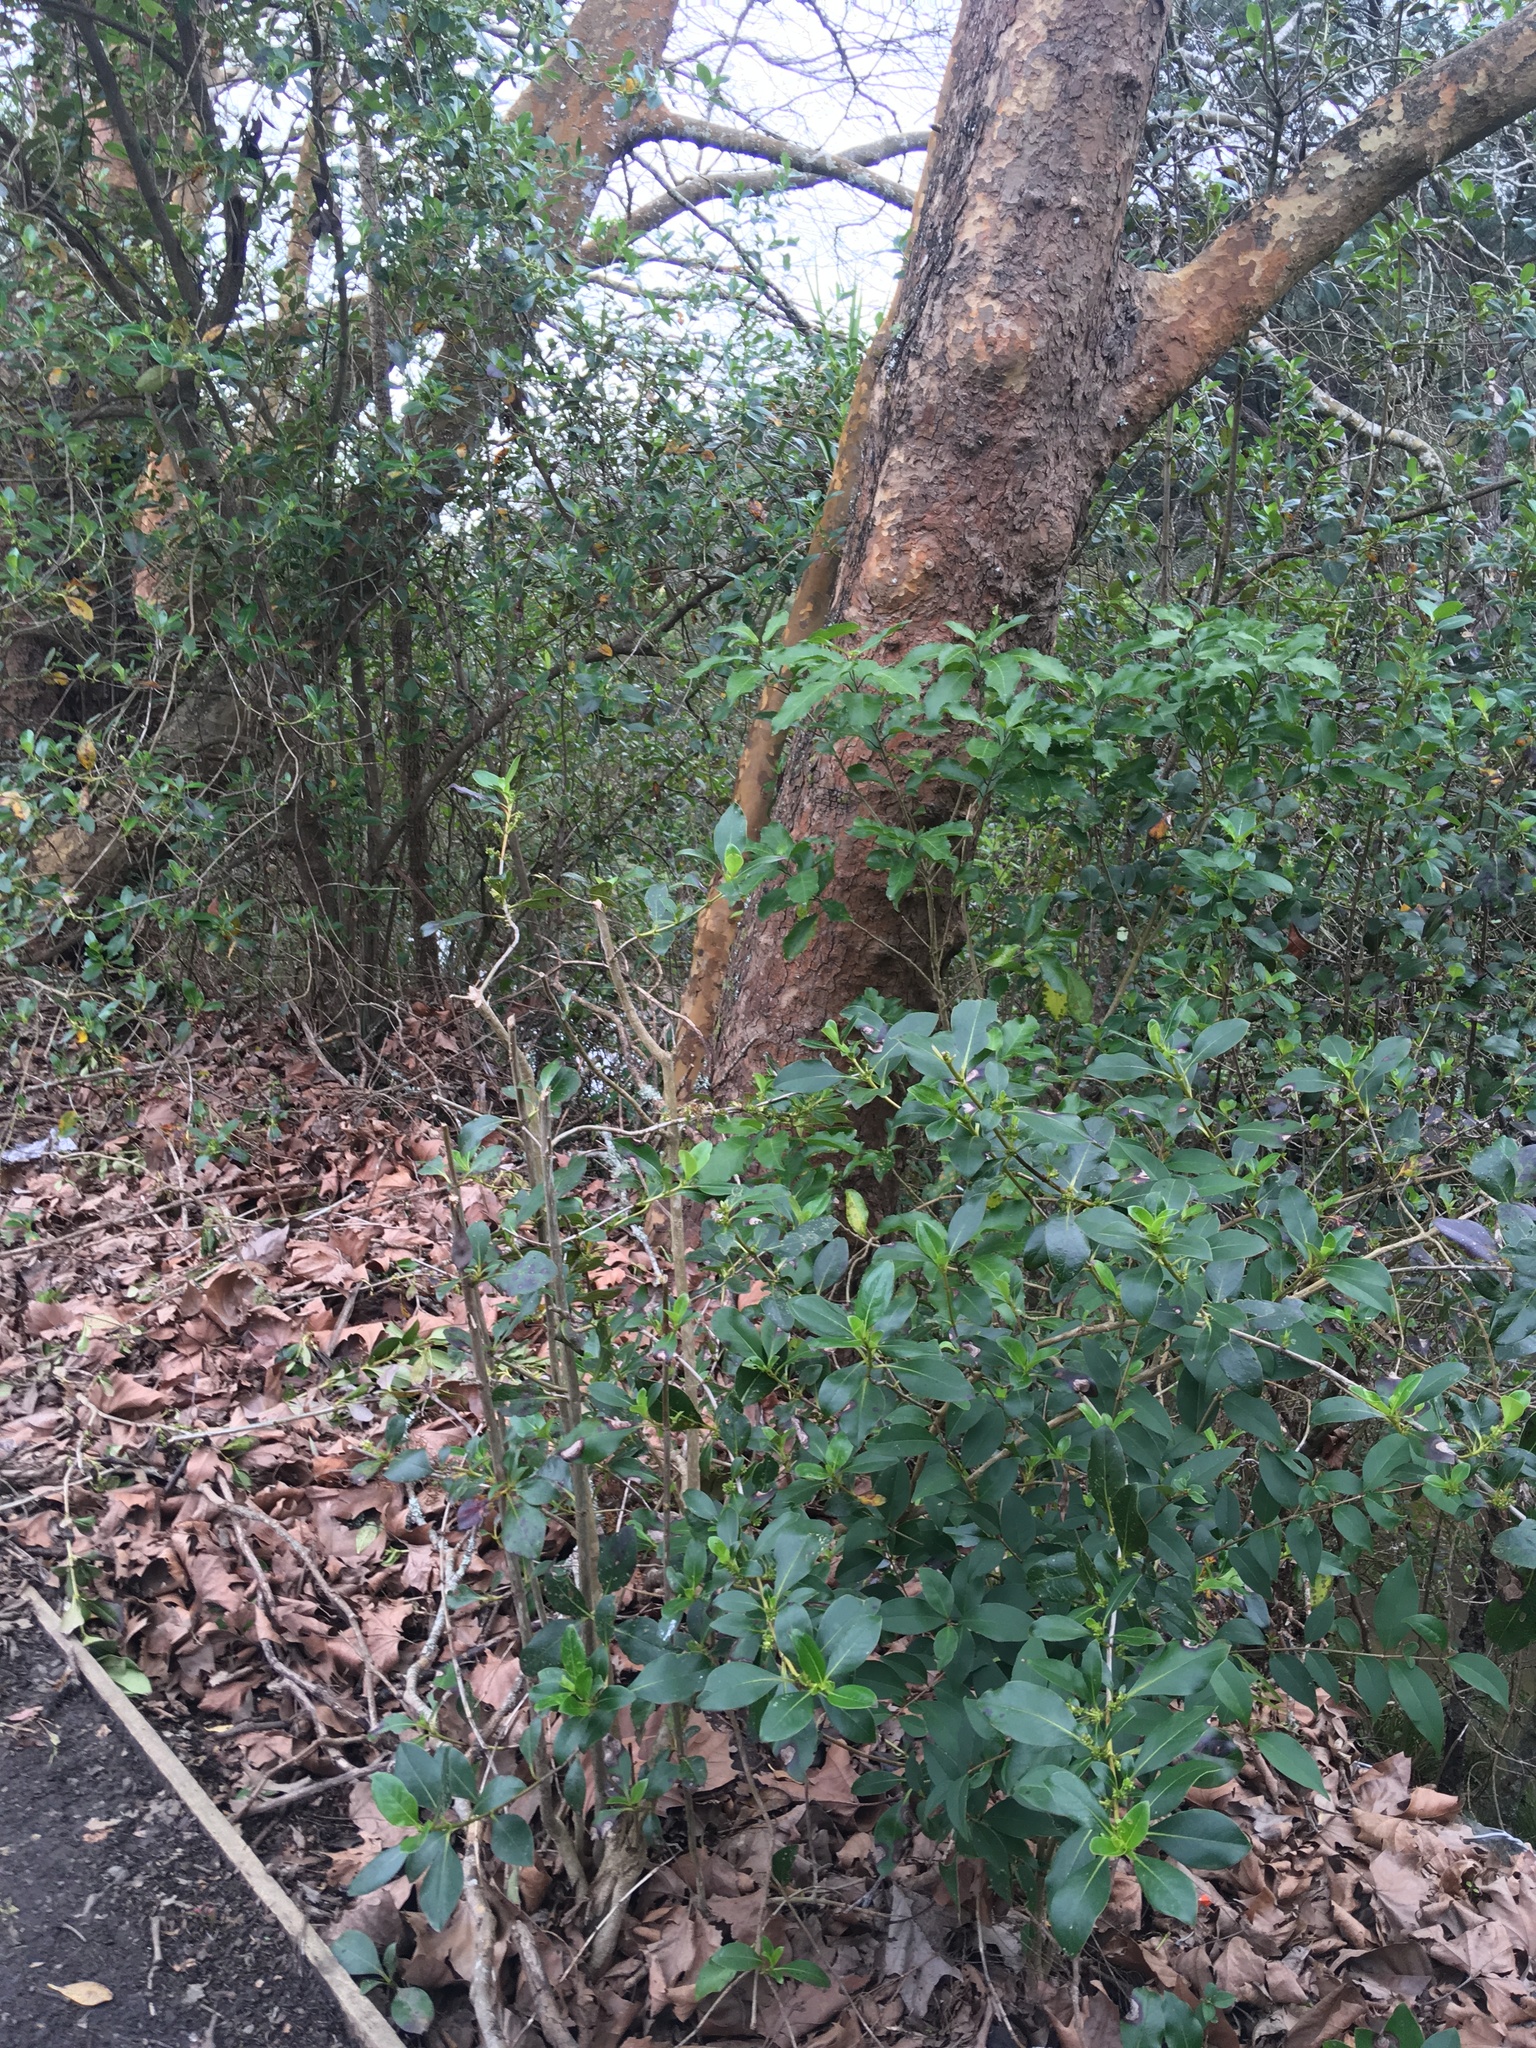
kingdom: Plantae
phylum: Tracheophyta
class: Magnoliopsida
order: Gentianales
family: Rubiaceae
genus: Coprosma
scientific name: Coprosma robusta
